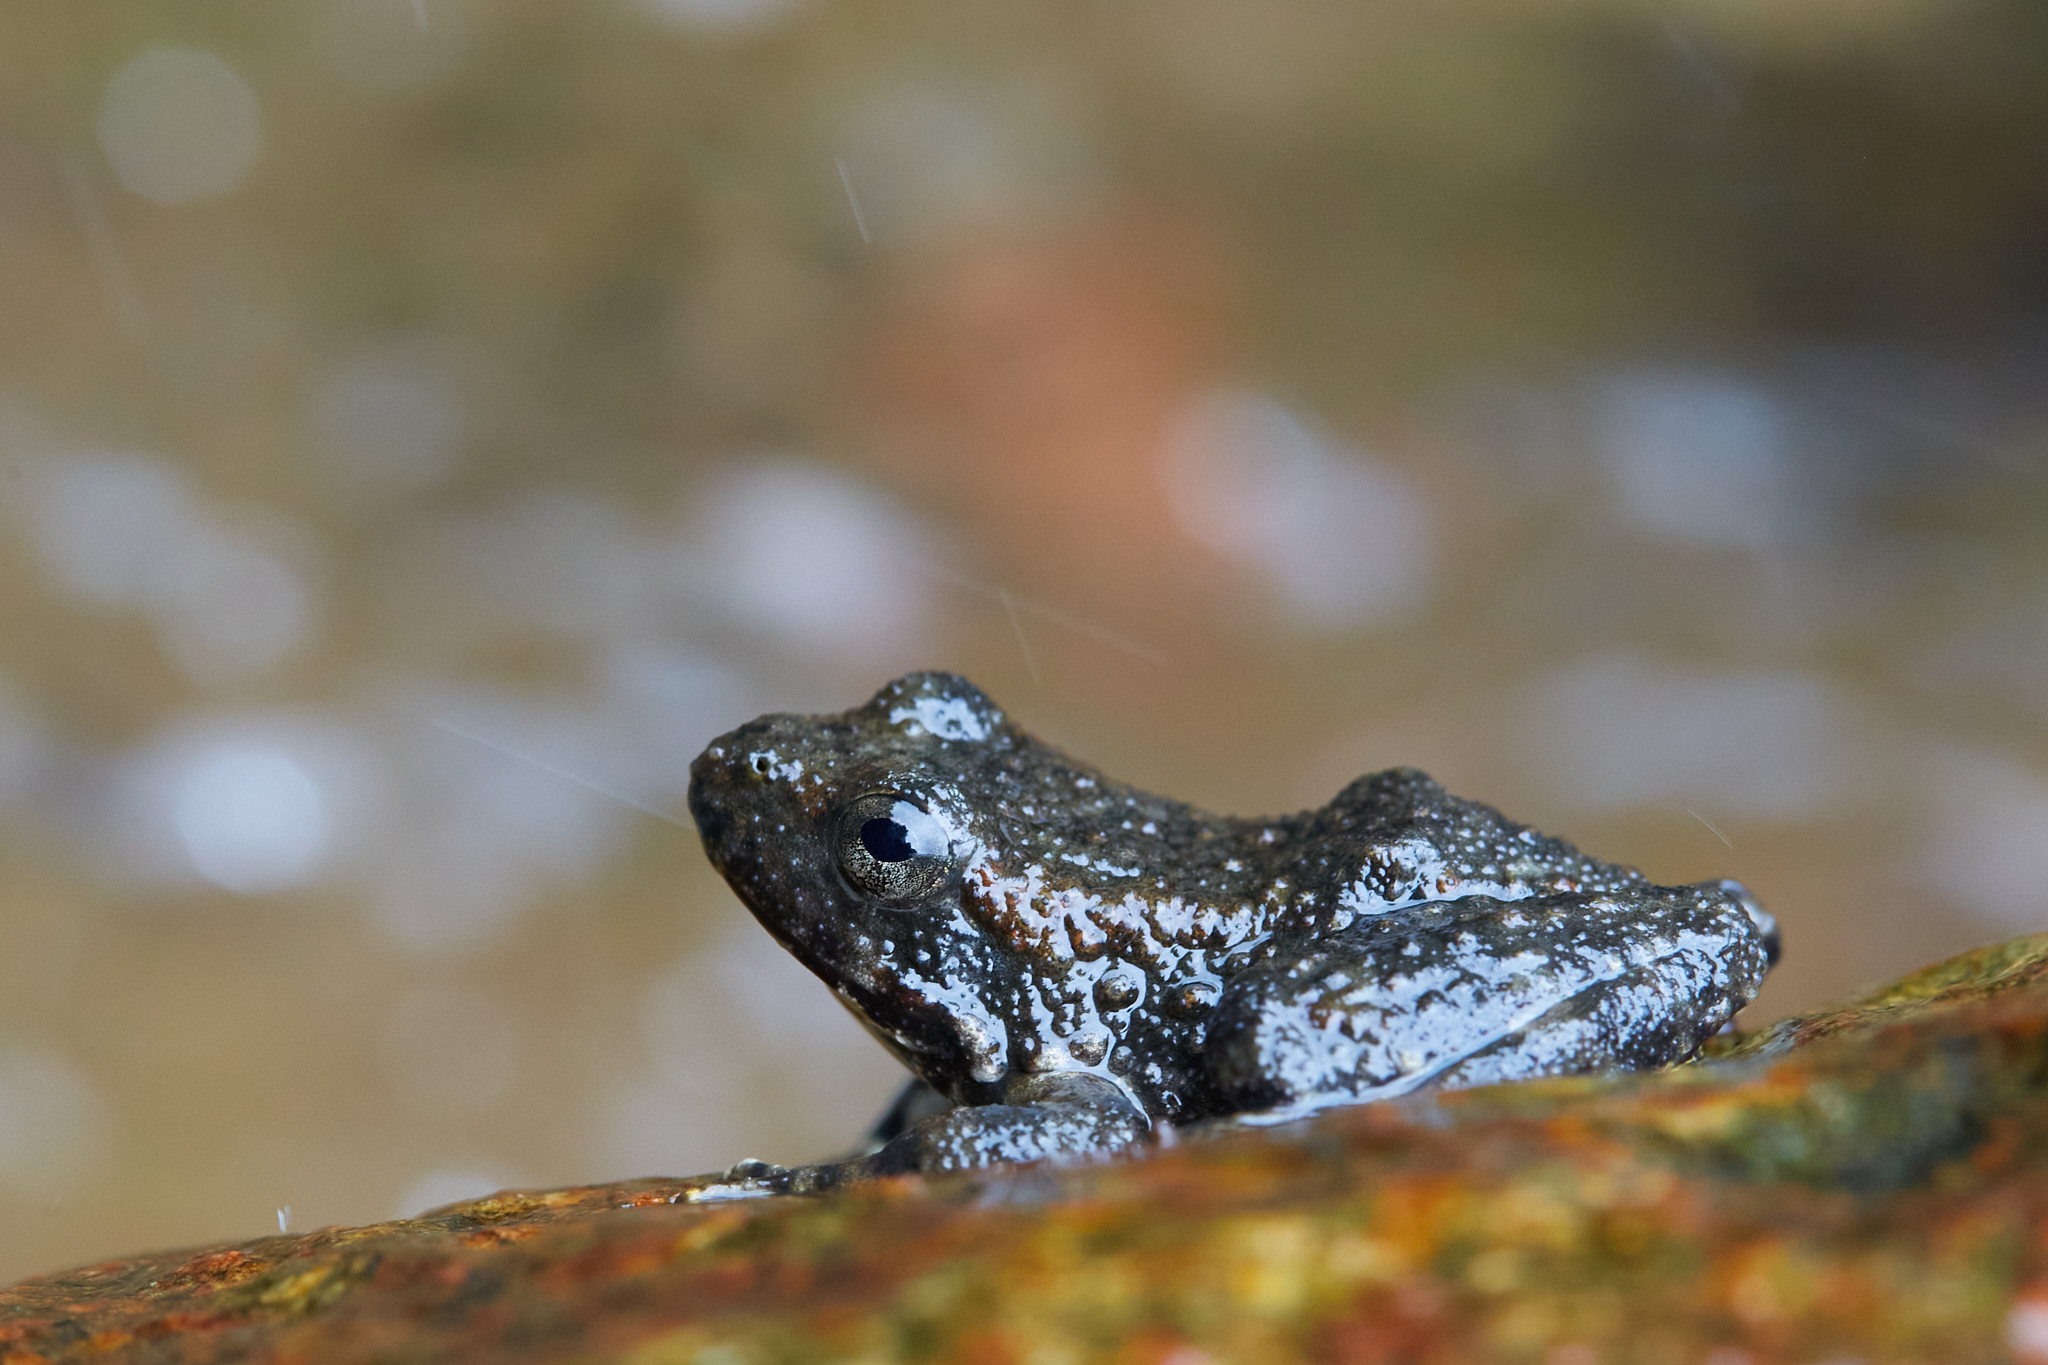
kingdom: Animalia
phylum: Chordata
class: Amphibia
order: Anura
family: Ranidae
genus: Rana
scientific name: Rana boylii
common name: Foothill yellow-legged frog
